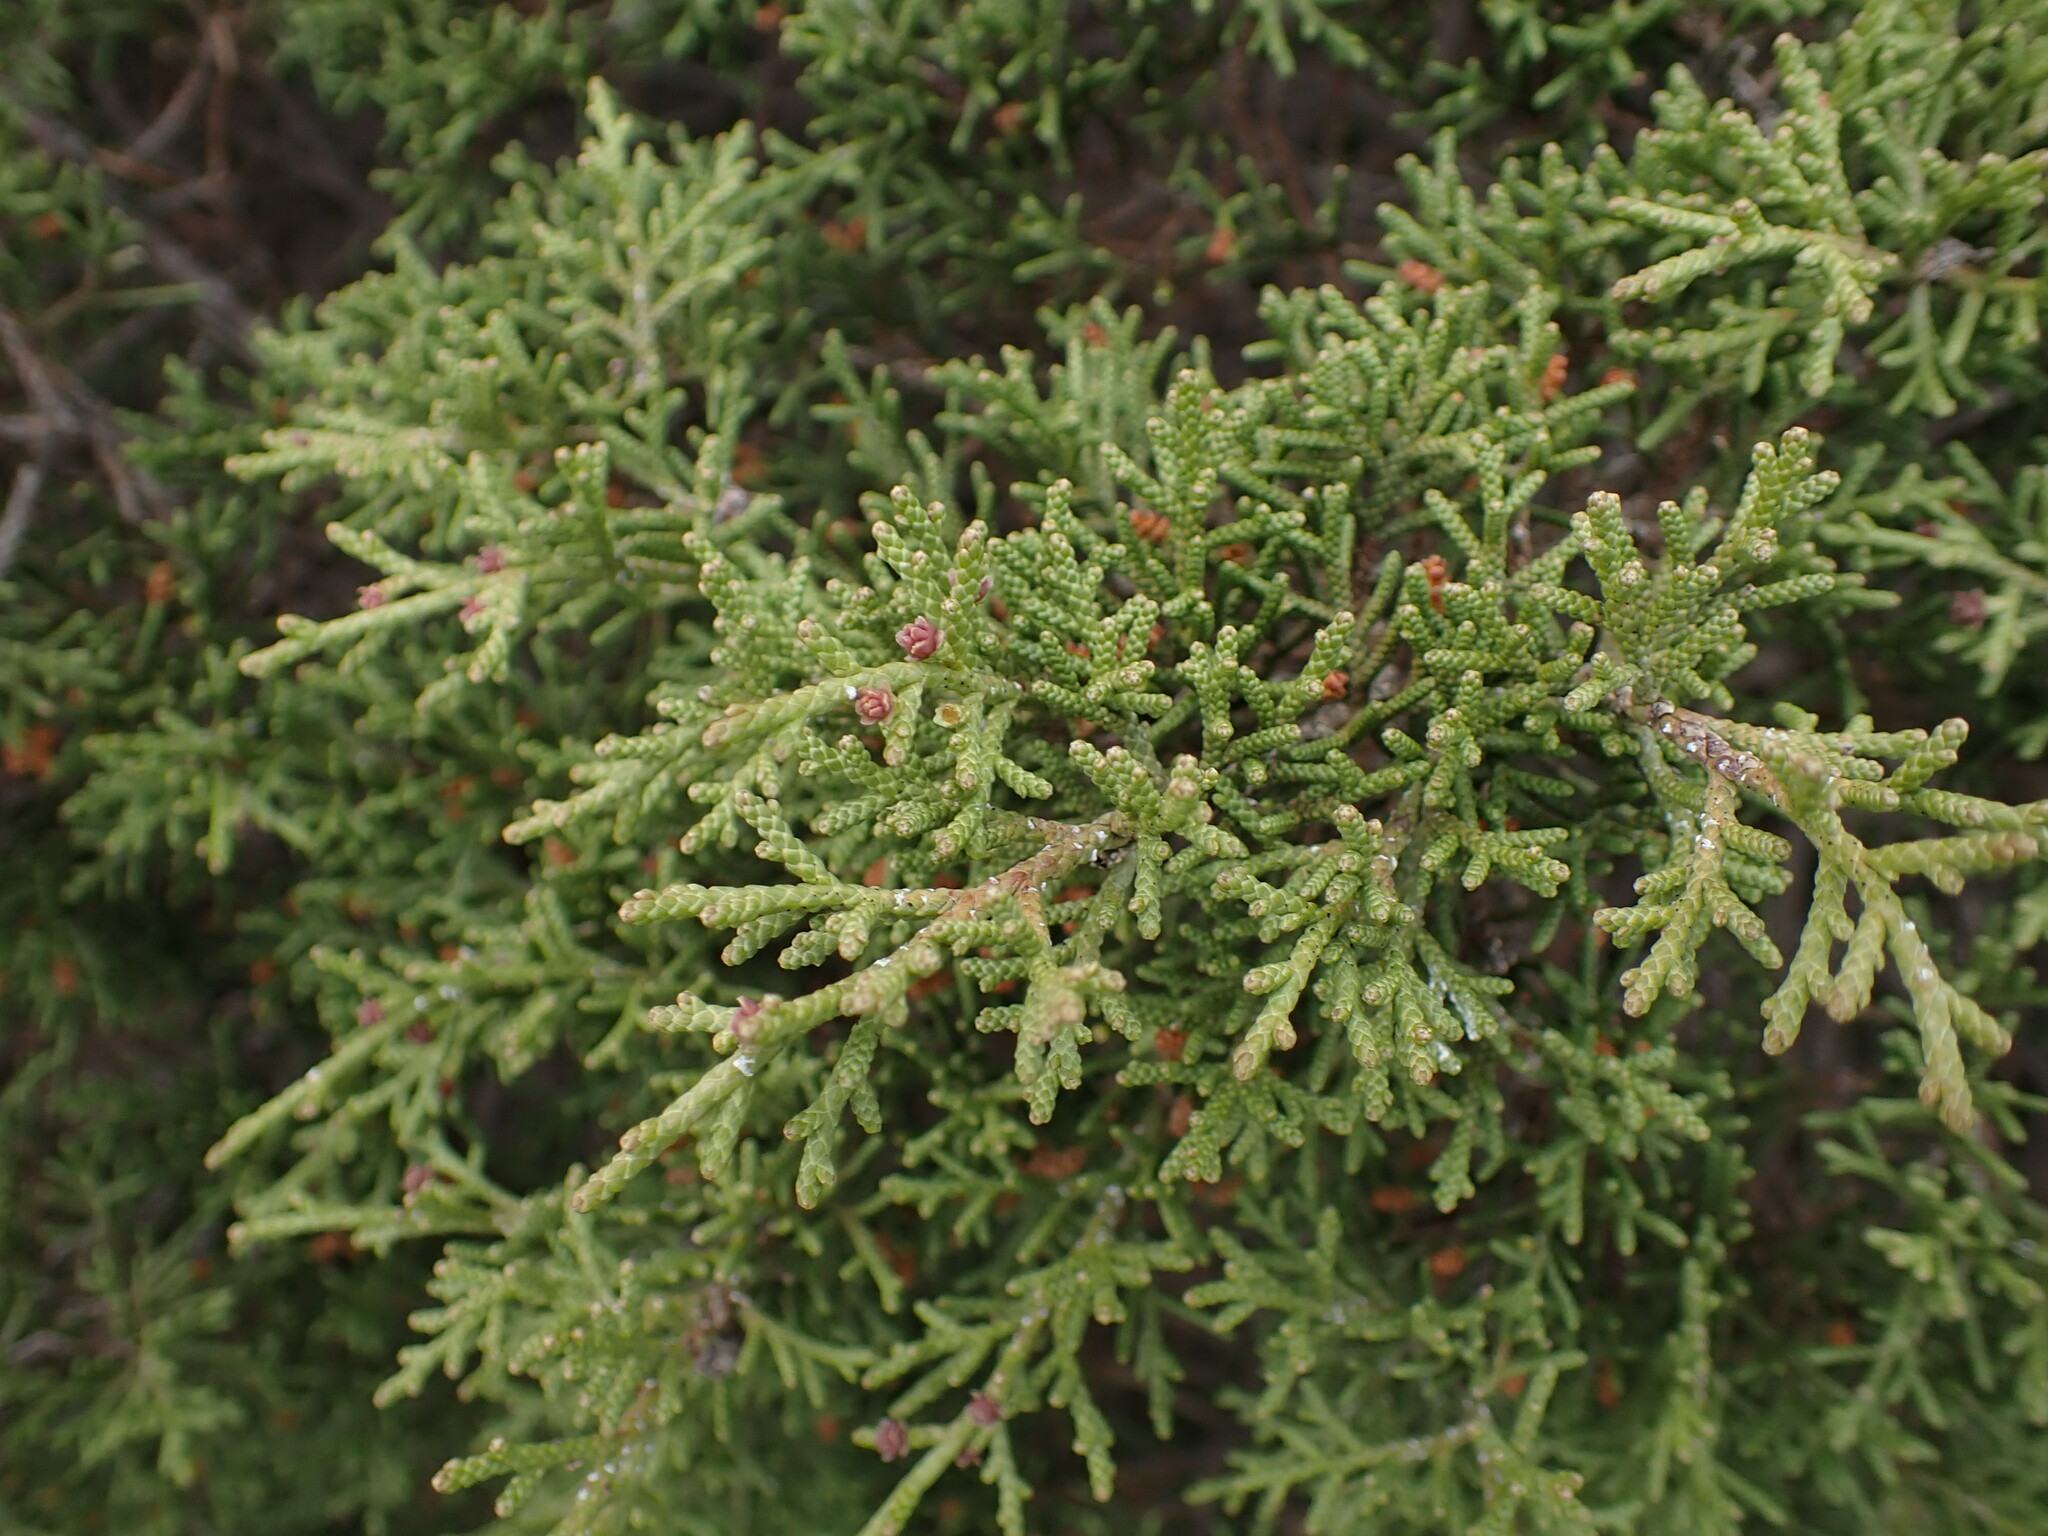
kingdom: Plantae
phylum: Tracheophyta
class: Pinopsida
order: Pinales
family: Cupressaceae
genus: Juniperus
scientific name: Juniperus phoenicea
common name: Phoenician juniper
